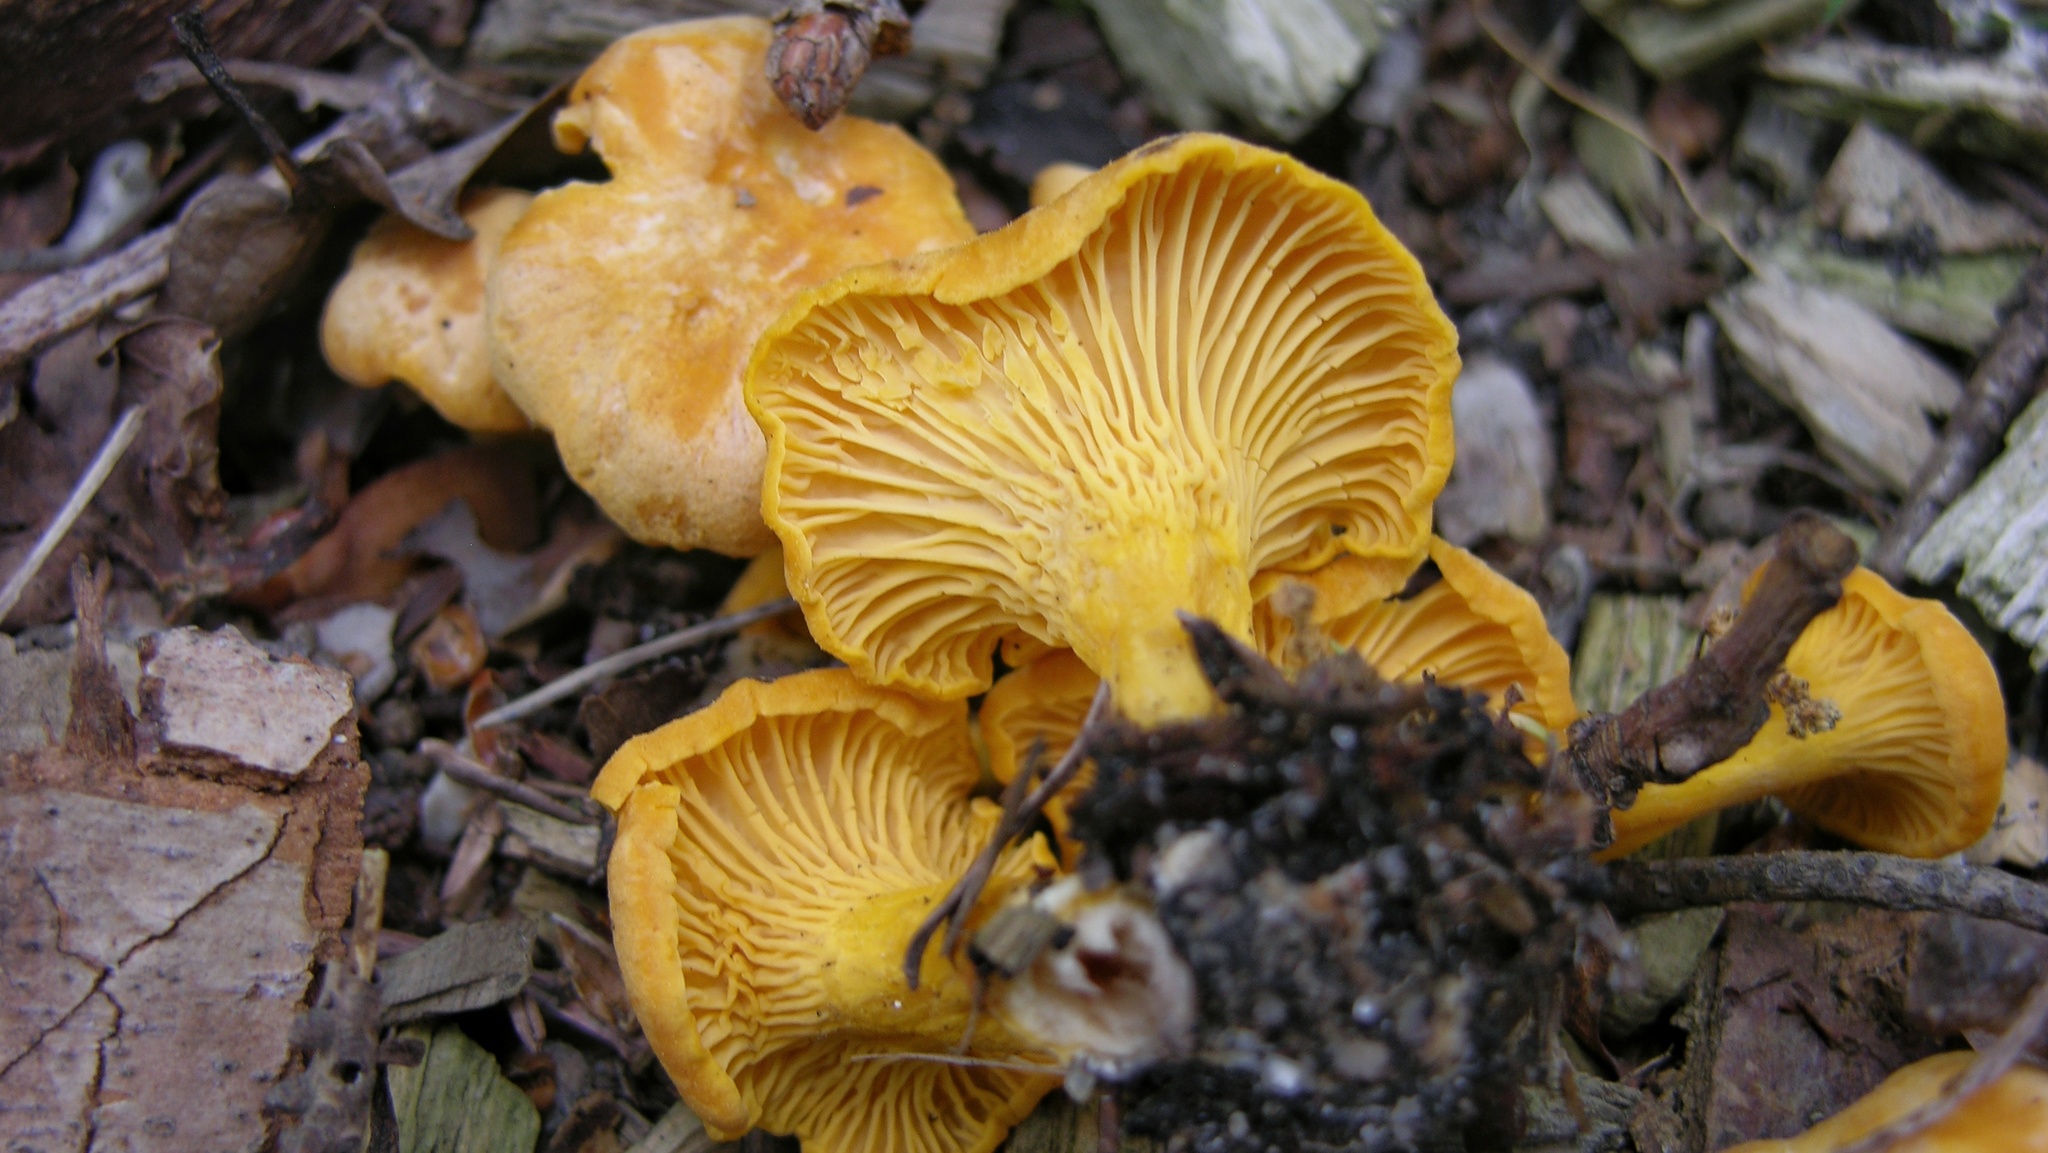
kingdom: Fungi
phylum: Basidiomycota
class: Agaricomycetes
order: Cantharellales
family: Hydnaceae
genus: Cantharellus
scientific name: Cantharellus cibarius
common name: Chanterelle
